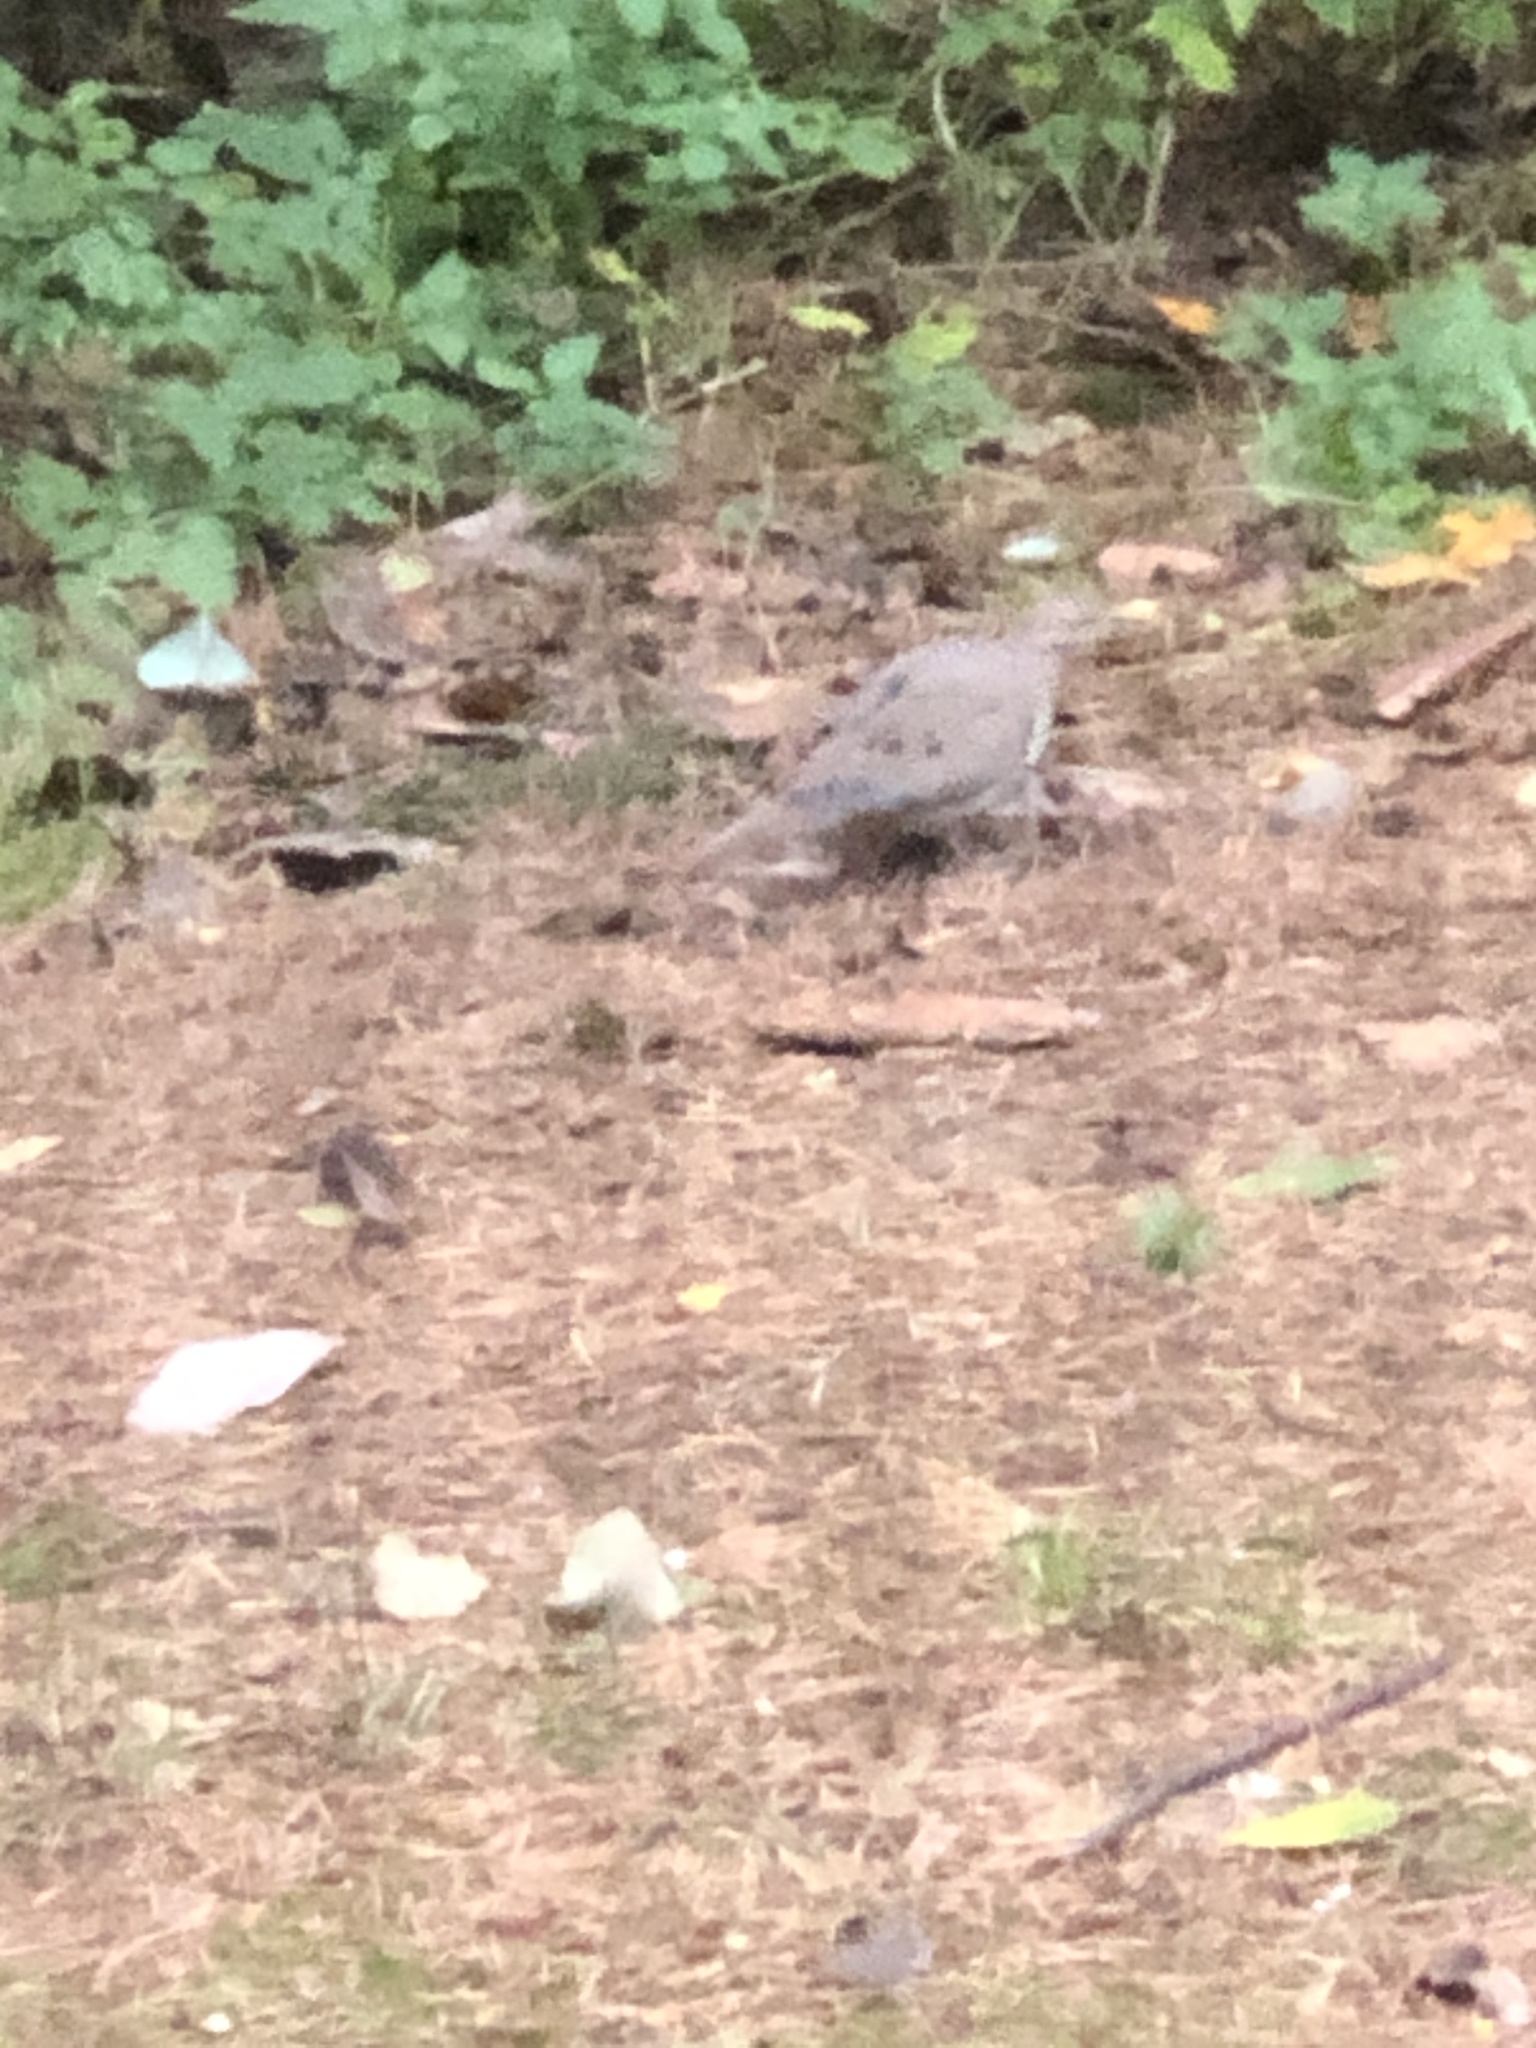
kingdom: Animalia
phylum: Chordata
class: Aves
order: Columbiformes
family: Columbidae
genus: Zenaida
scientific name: Zenaida macroura
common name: Mourning dove
